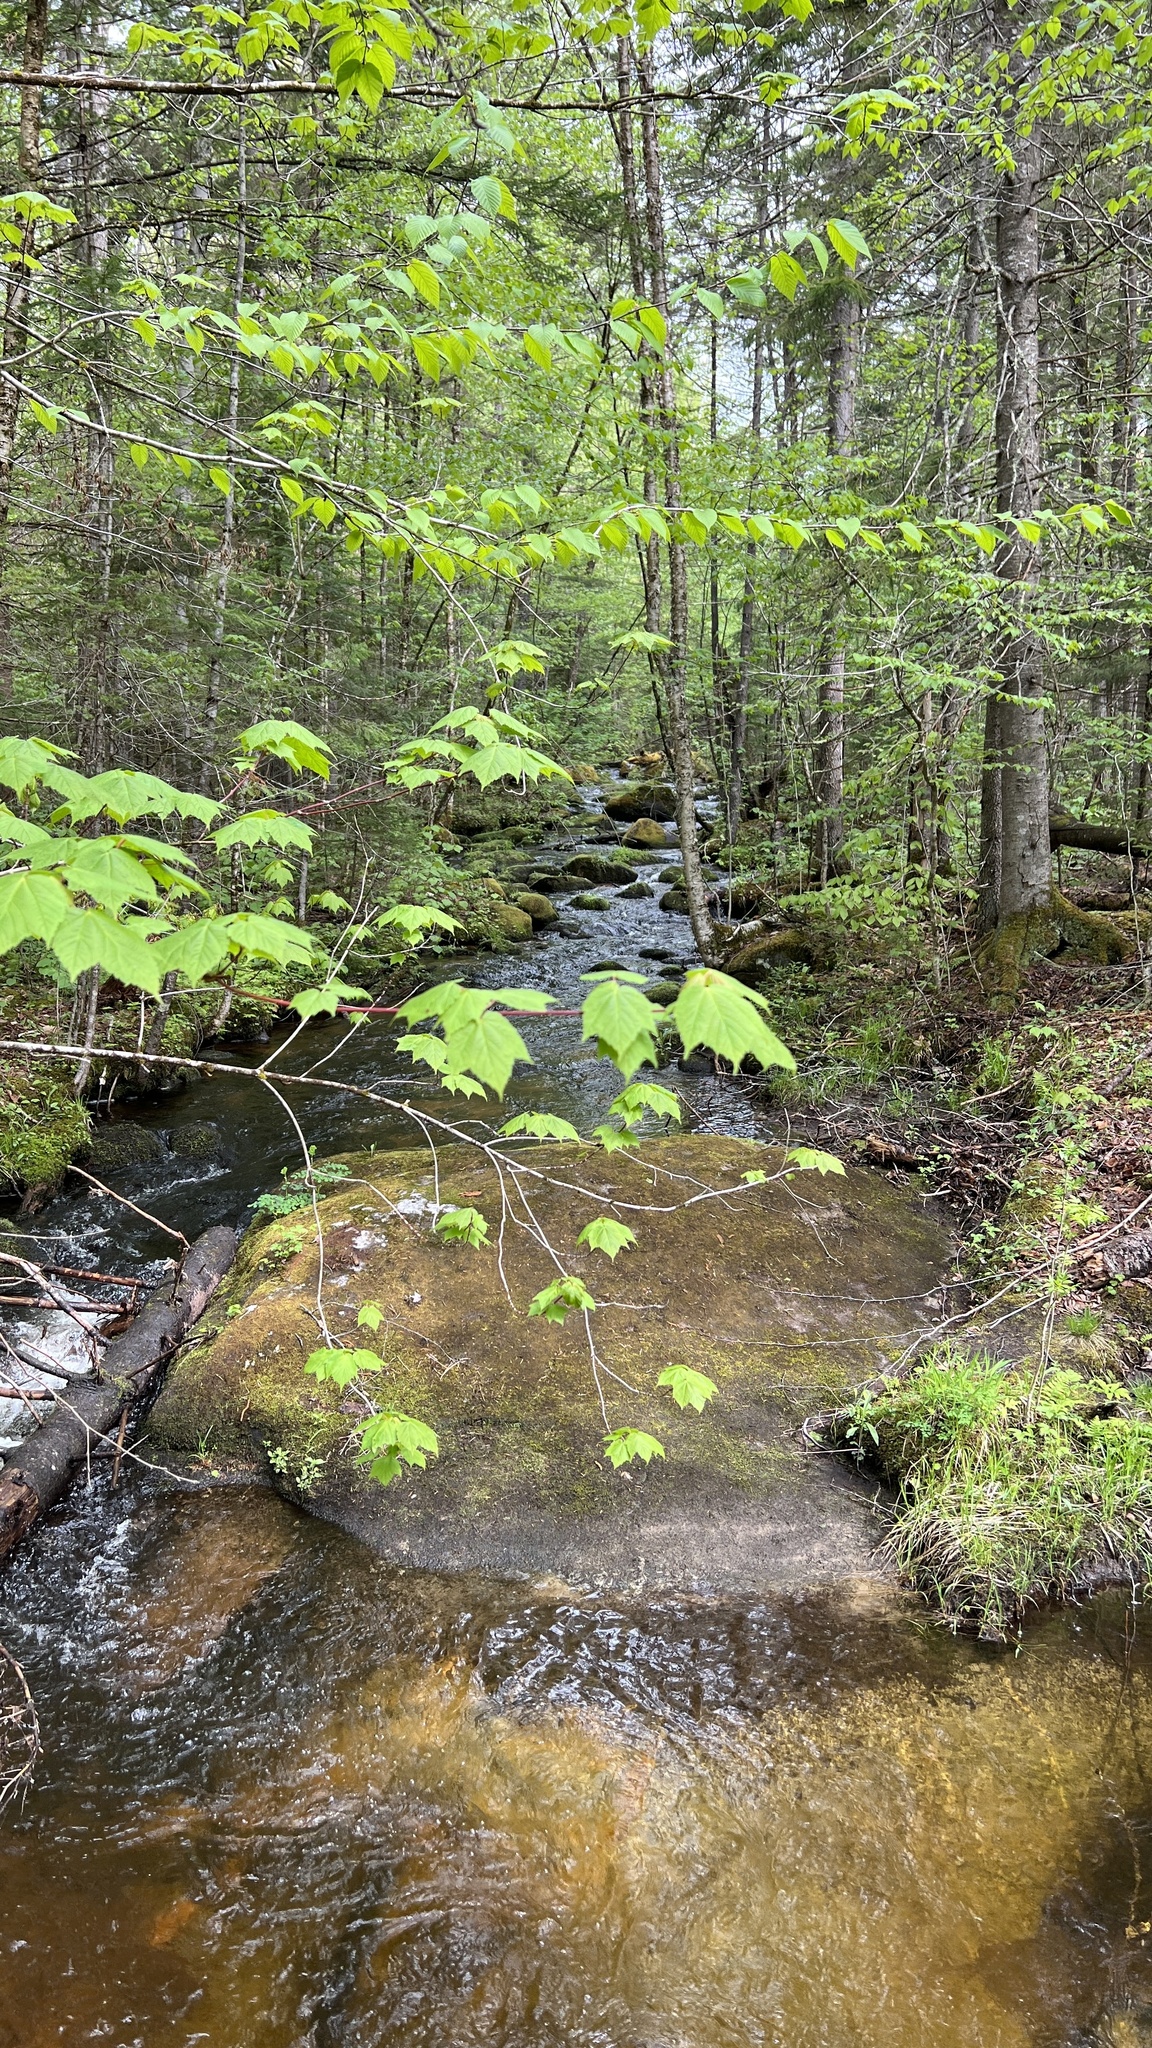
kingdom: Plantae
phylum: Tracheophyta
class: Magnoliopsida
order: Sapindales
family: Sapindaceae
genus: Acer
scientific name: Acer spicatum
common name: Mountain maple
